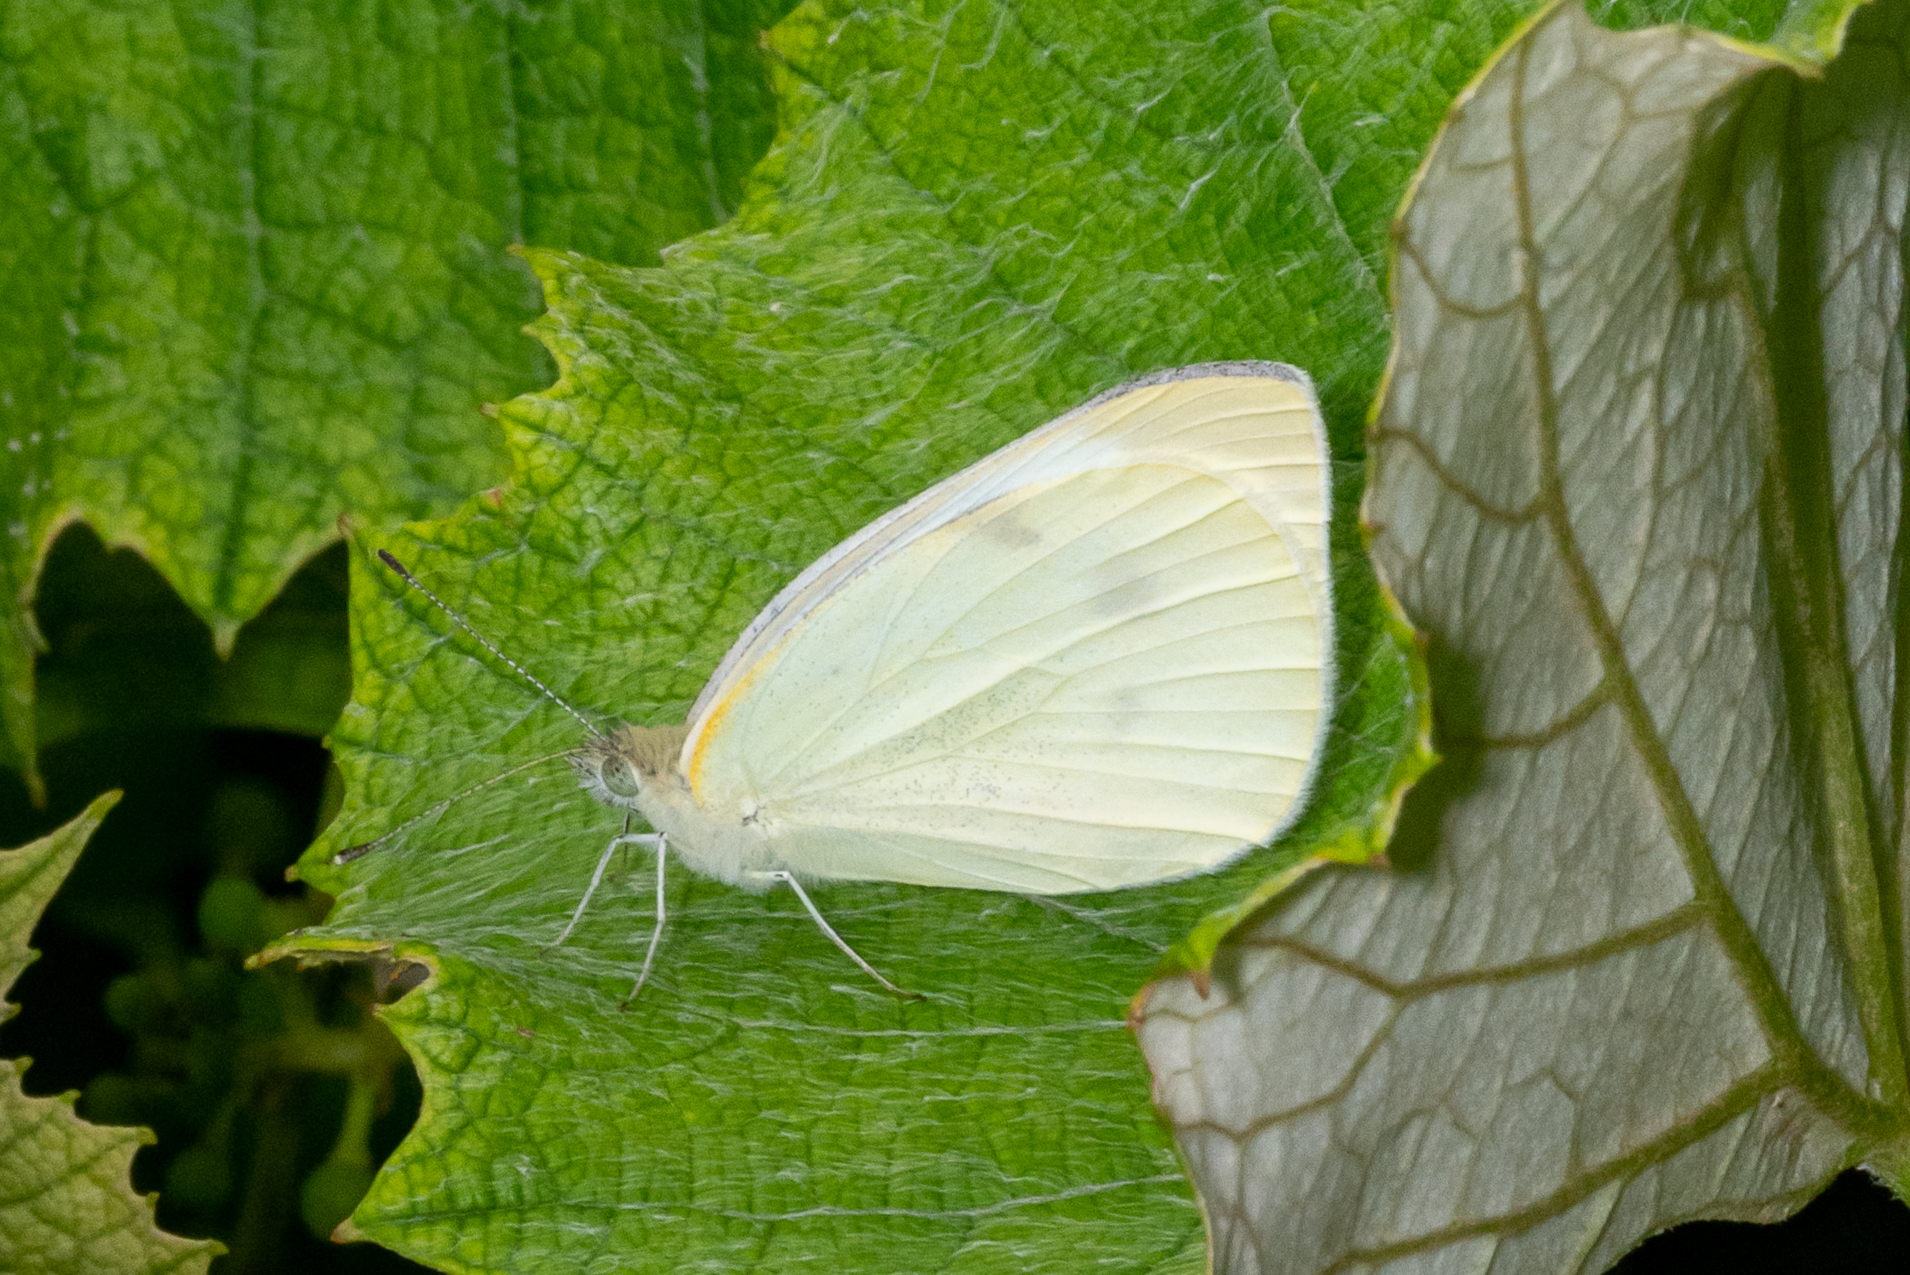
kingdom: Animalia
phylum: Arthropoda
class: Insecta
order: Lepidoptera
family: Pieridae
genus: Pieris
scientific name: Pieris rapae
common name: Small white
